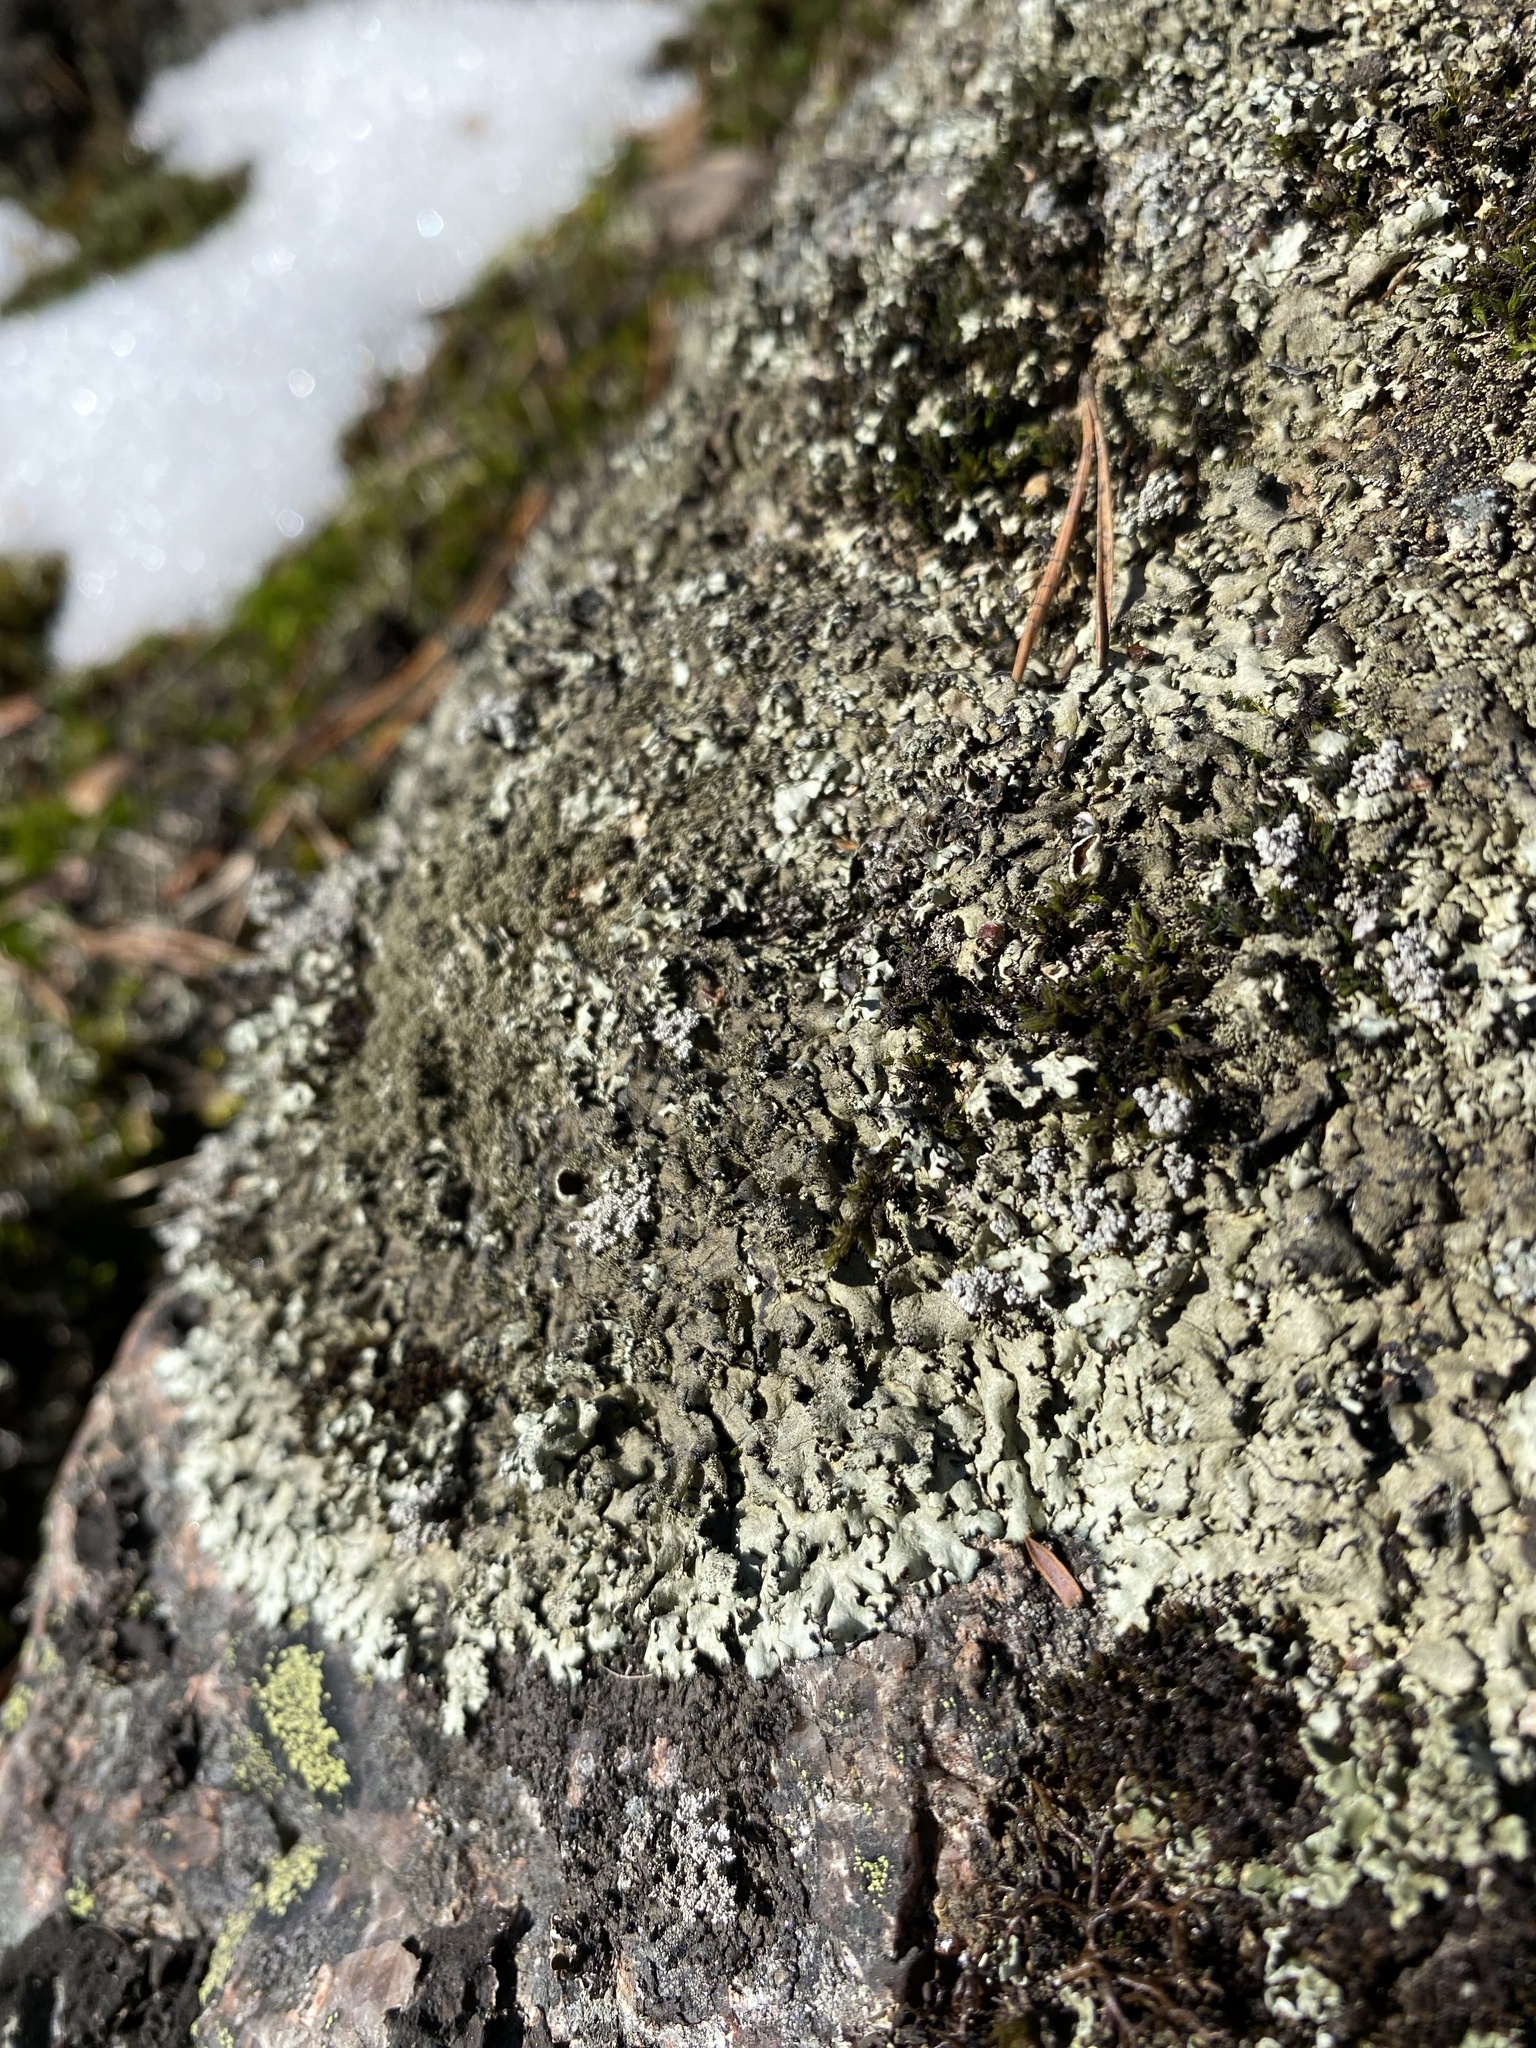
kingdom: Fungi
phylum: Ascomycota
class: Lecanoromycetes
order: Lecanorales
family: Parmeliaceae
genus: Xanthoparmelia
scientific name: Xanthoparmelia conspersa
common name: Peppered rock shield
